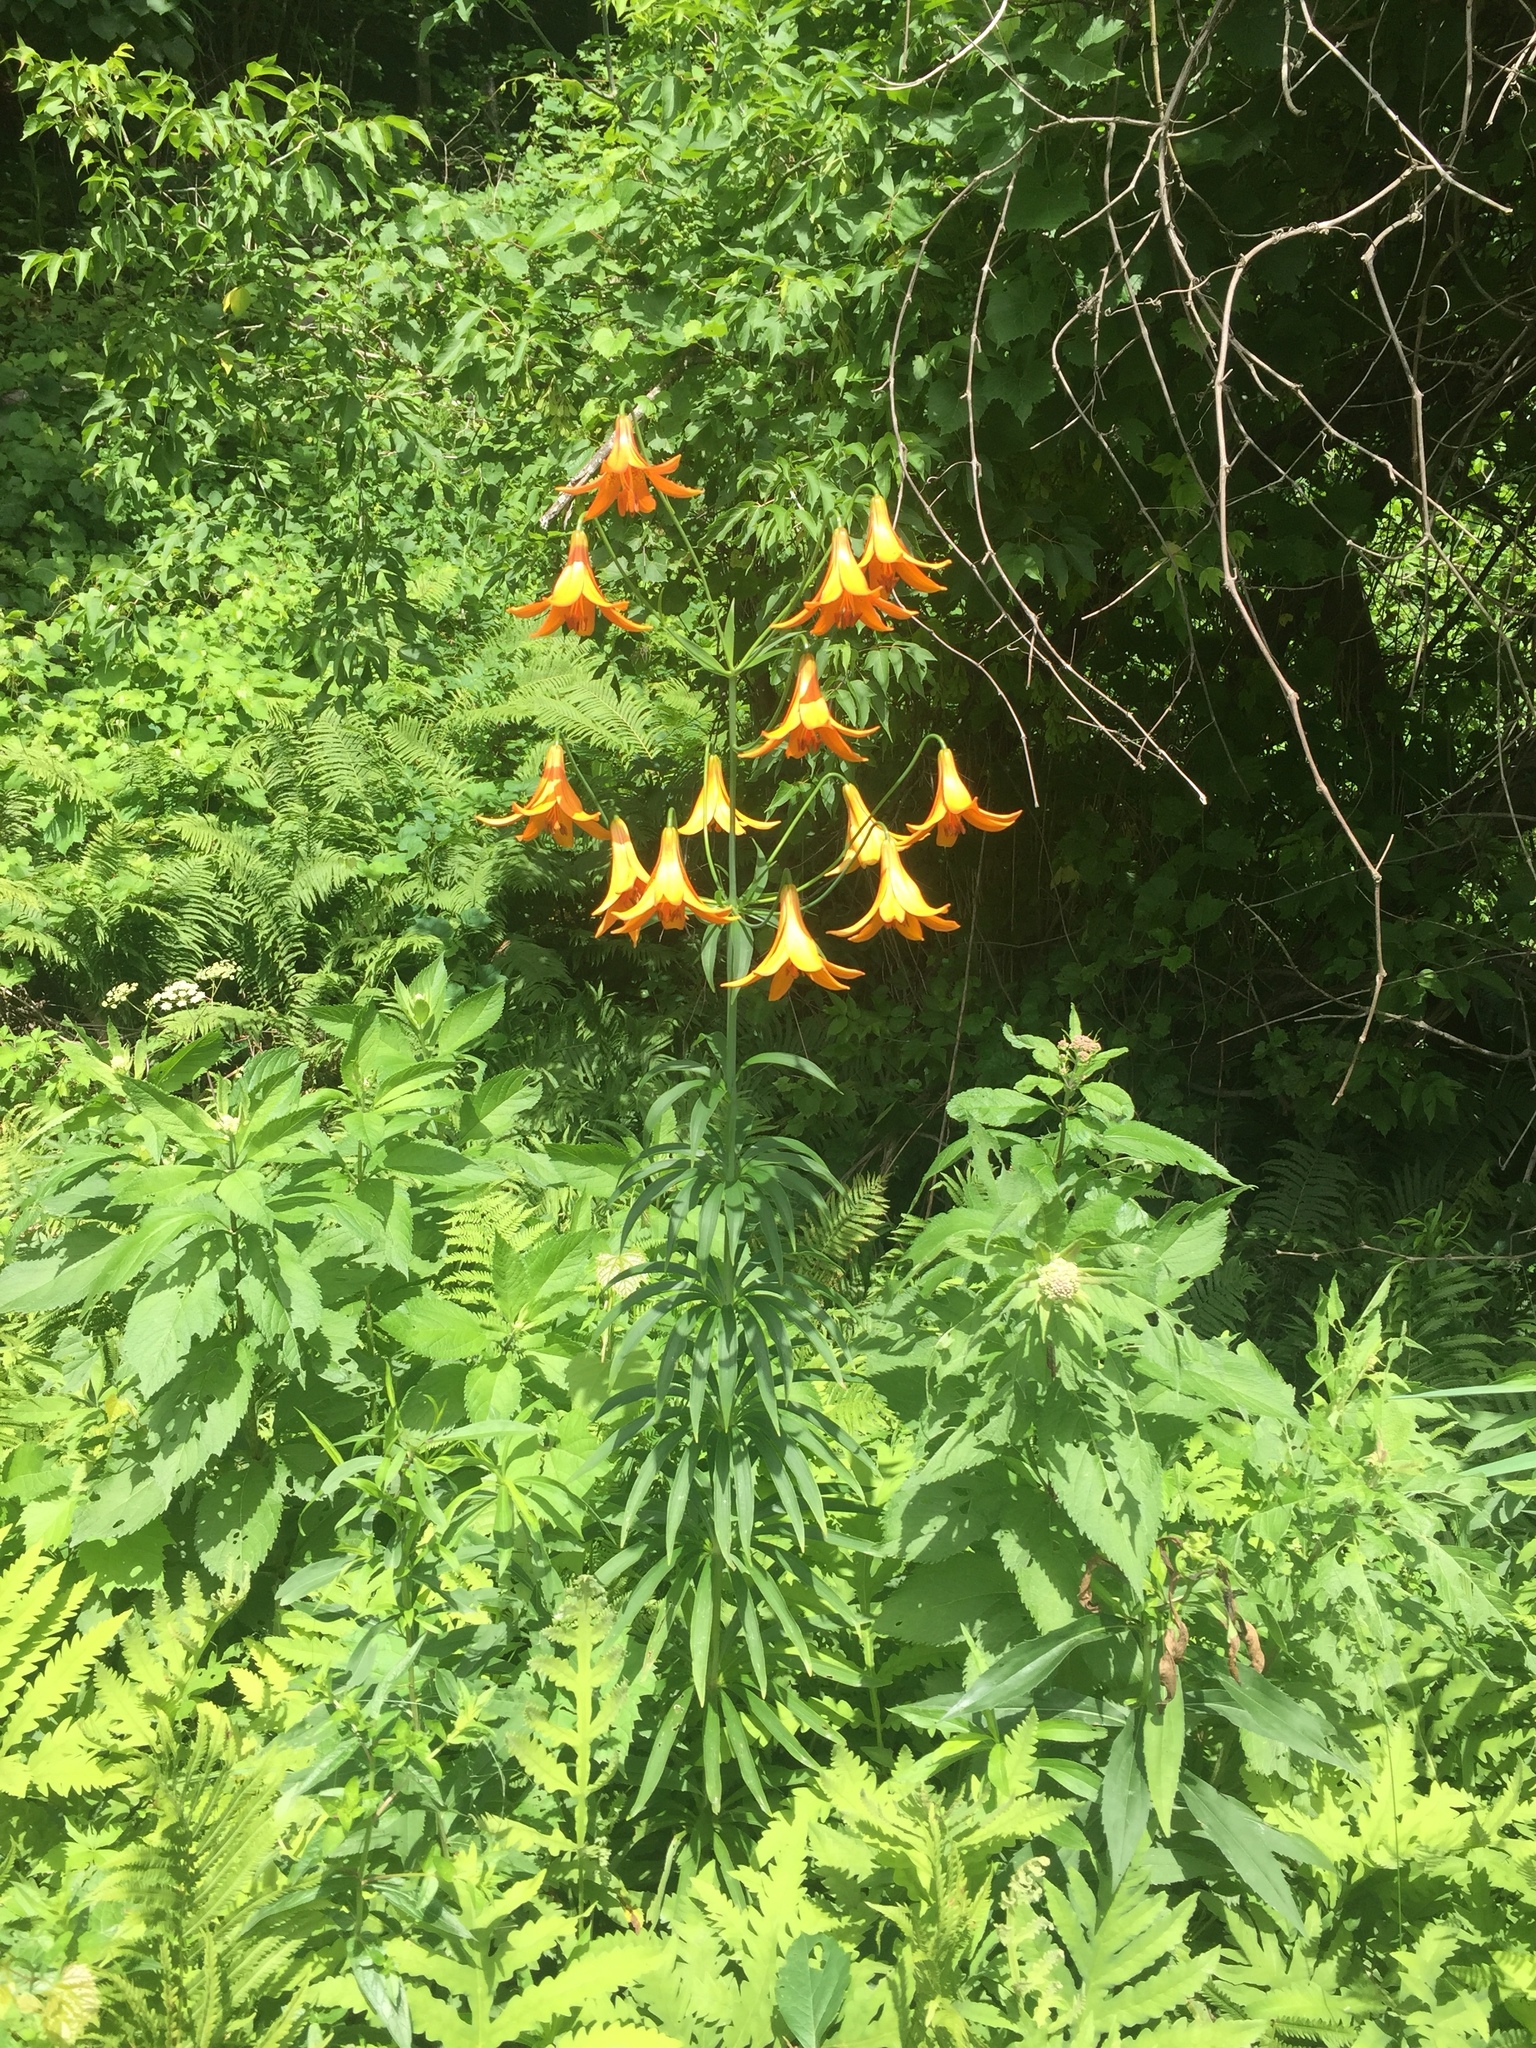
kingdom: Plantae
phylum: Tracheophyta
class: Liliopsida
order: Liliales
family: Liliaceae
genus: Lilium
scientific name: Lilium canadense
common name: Canada lily
